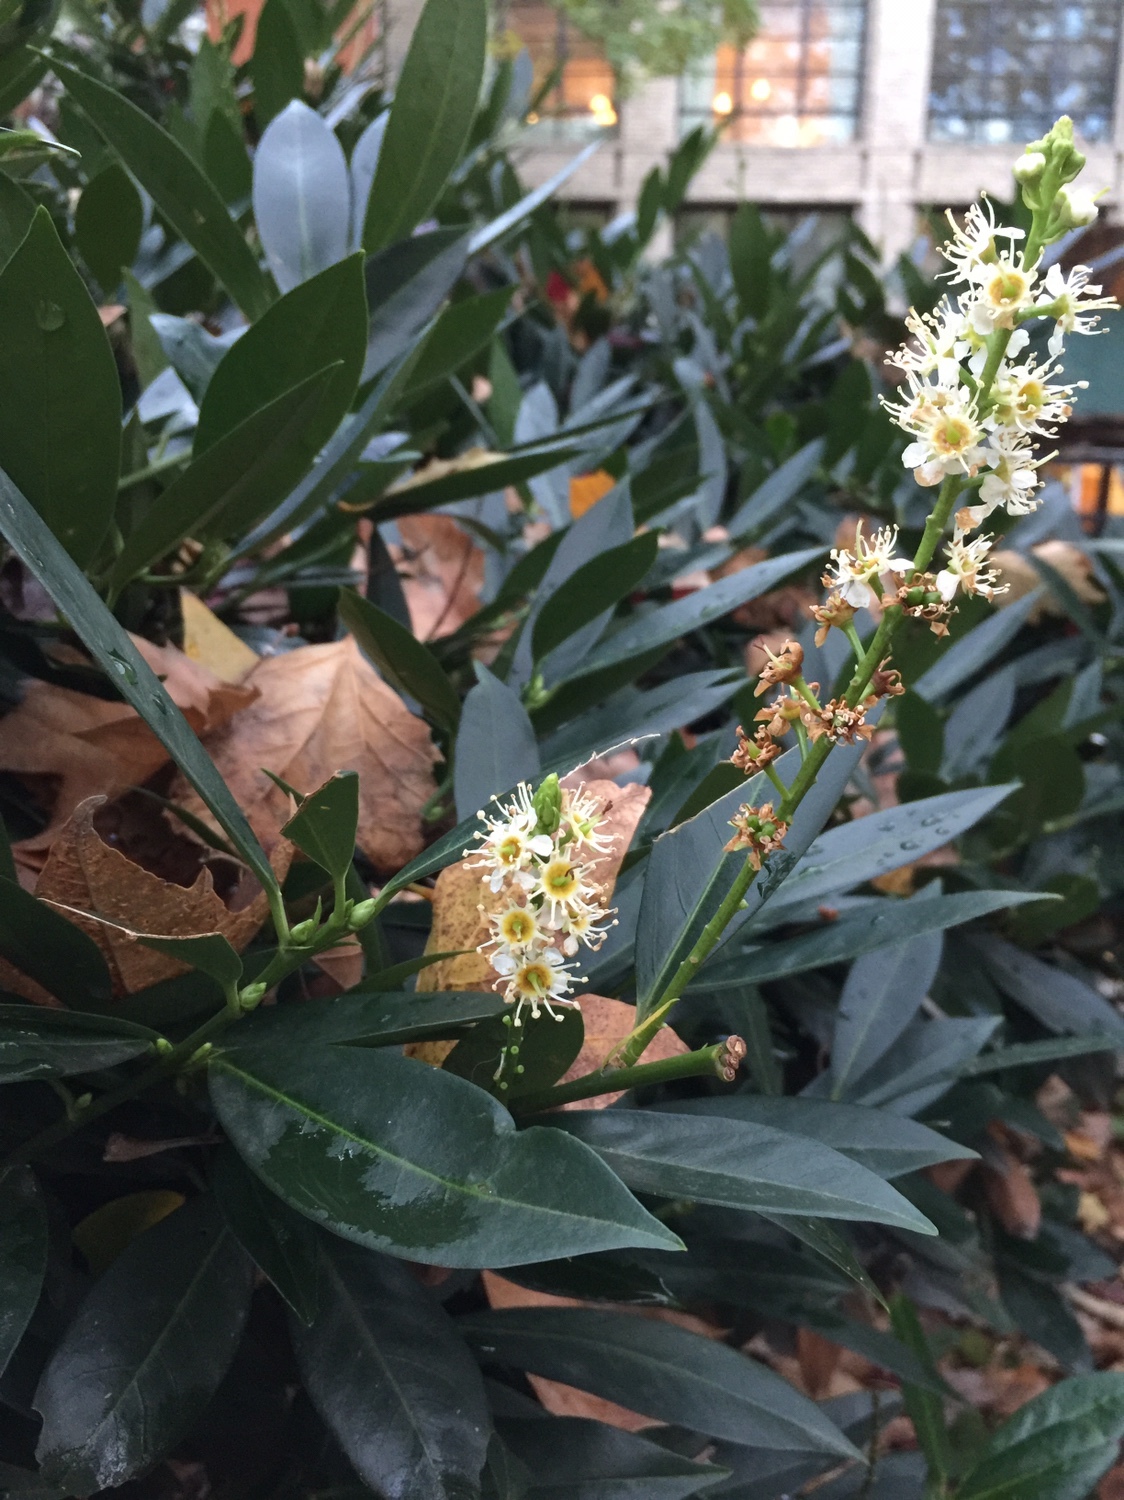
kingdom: Plantae
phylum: Tracheophyta
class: Magnoliopsida
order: Rosales
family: Rosaceae
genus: Prunus
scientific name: Prunus laurocerasus
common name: Cherry laurel
